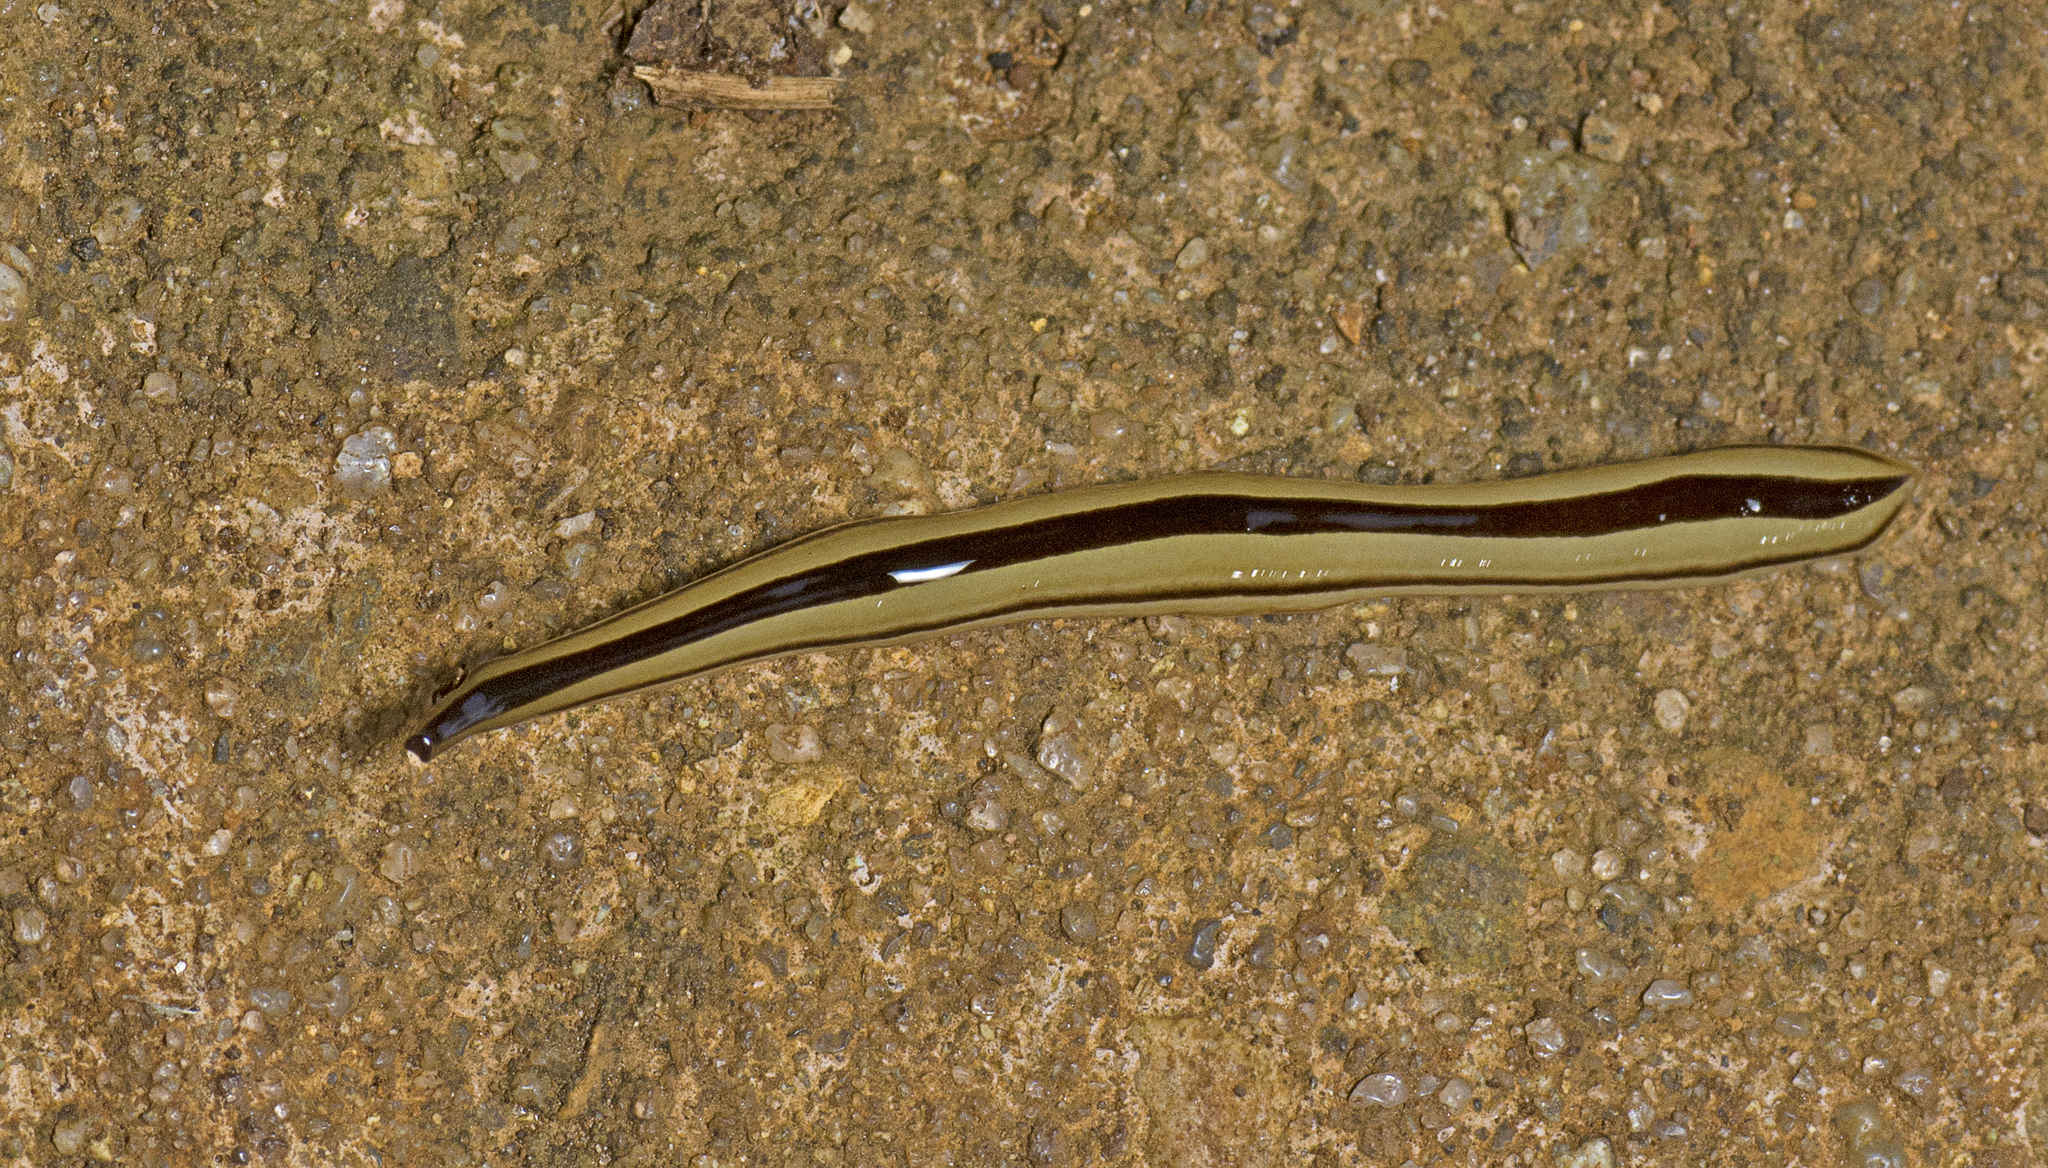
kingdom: Animalia
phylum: Platyhelminthes
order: Tricladida
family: Geoplanidae
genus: Australopacifica
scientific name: Australopacifica regina
